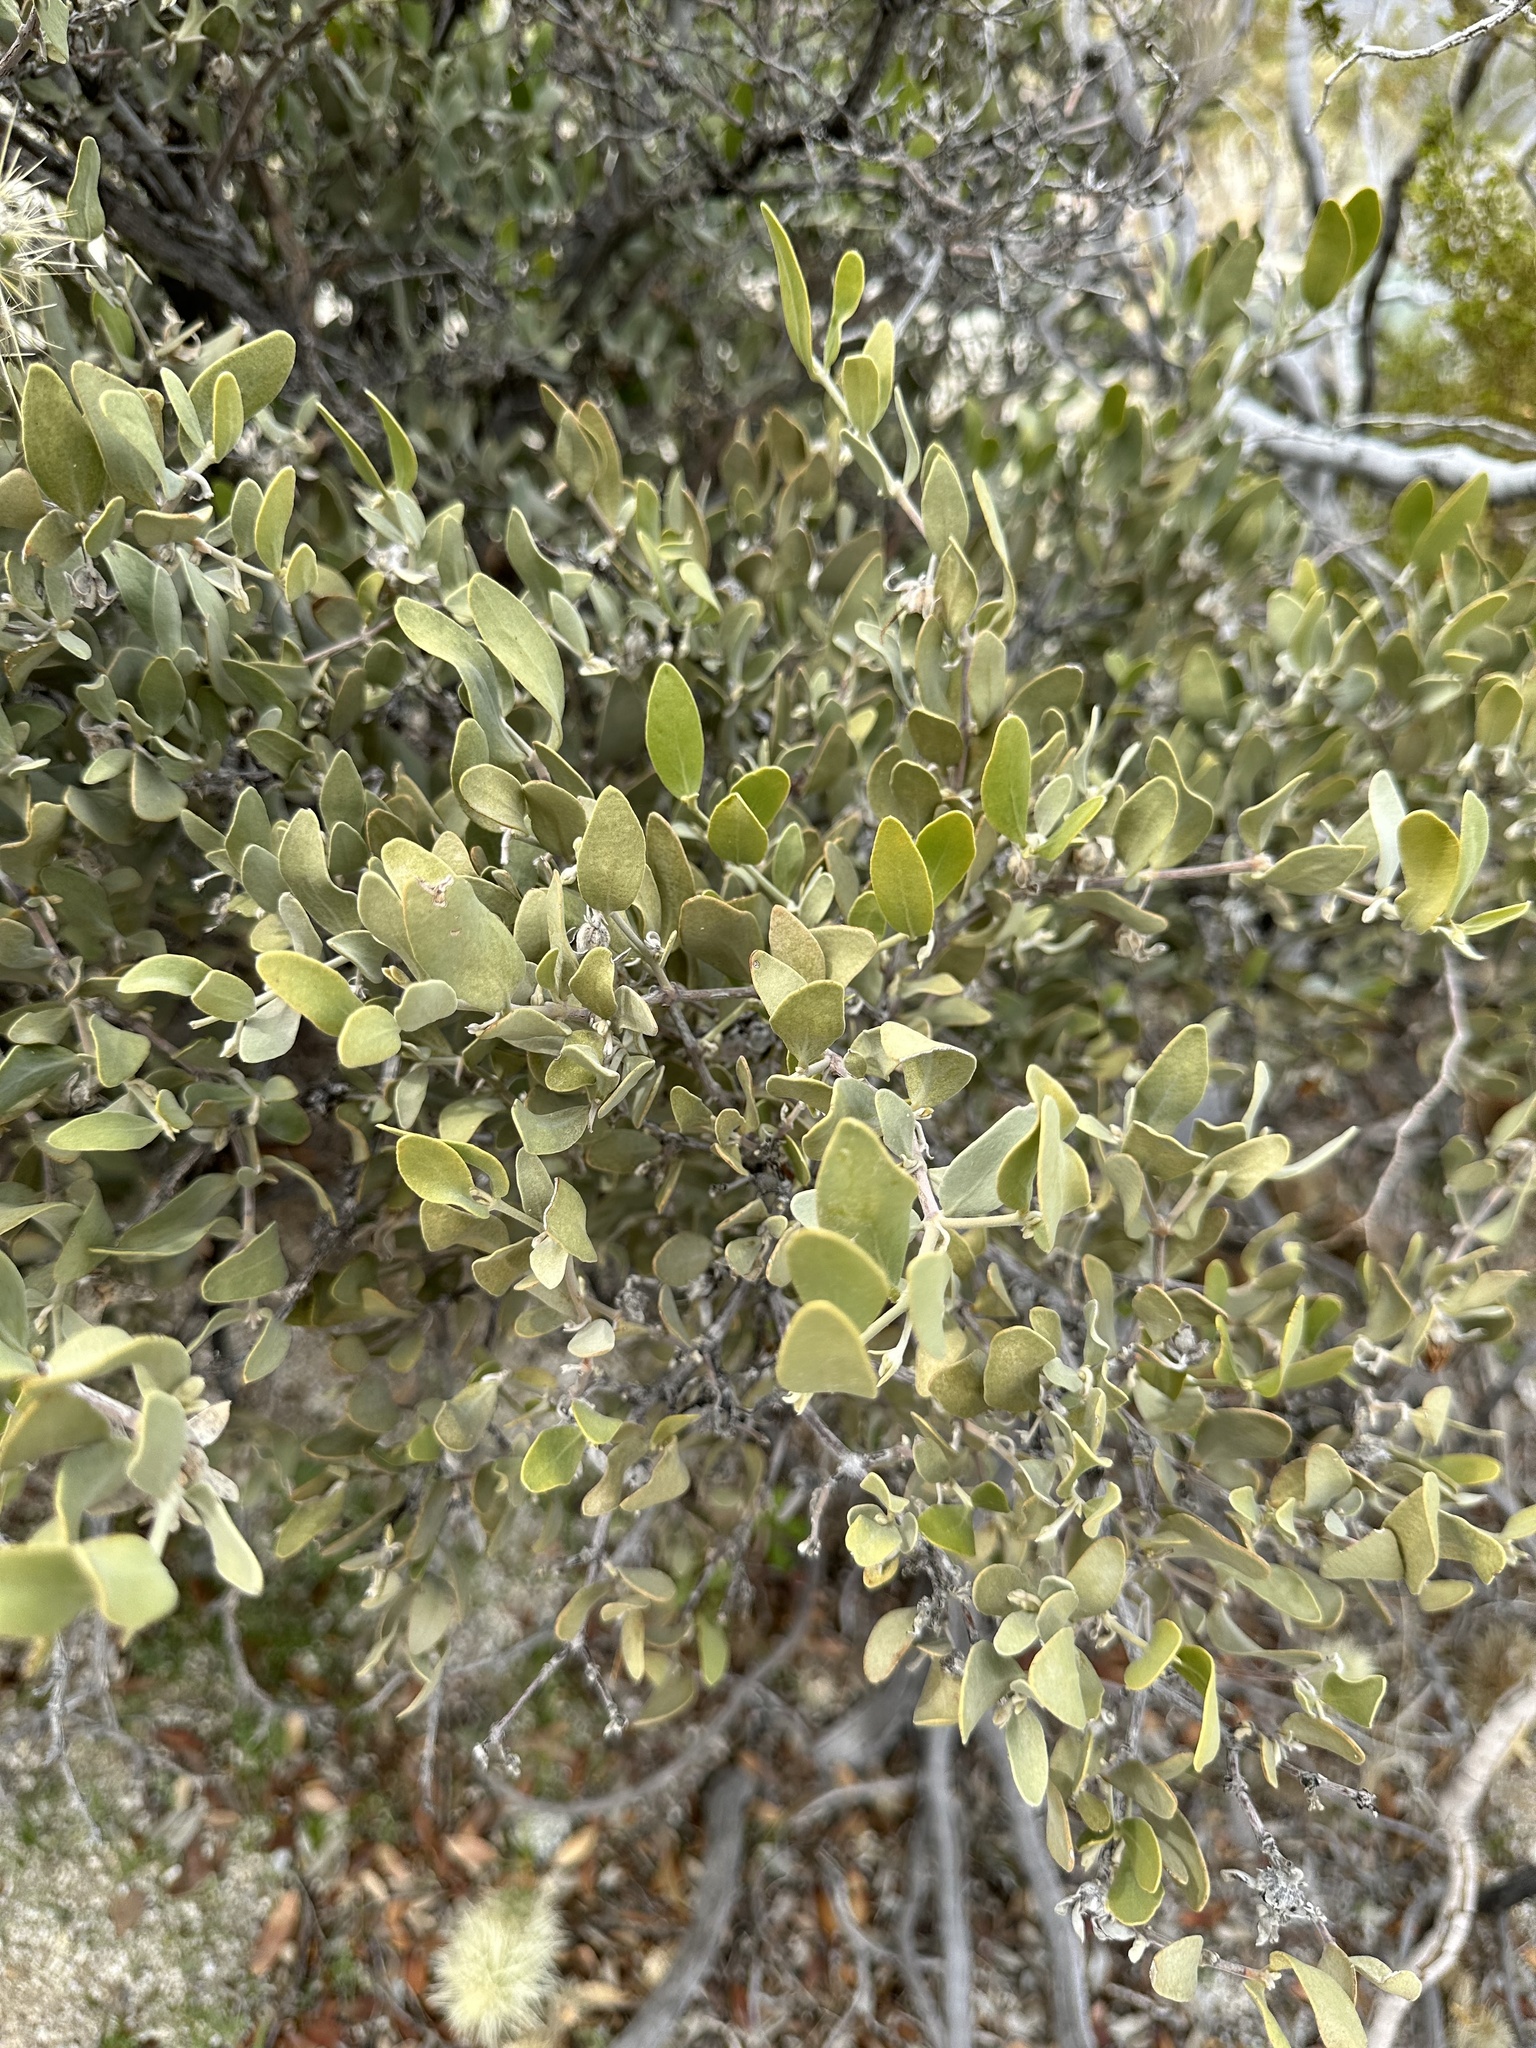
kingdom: Plantae
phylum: Tracheophyta
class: Magnoliopsida
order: Caryophyllales
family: Simmondsiaceae
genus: Simmondsia
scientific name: Simmondsia chinensis
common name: Jojoba
